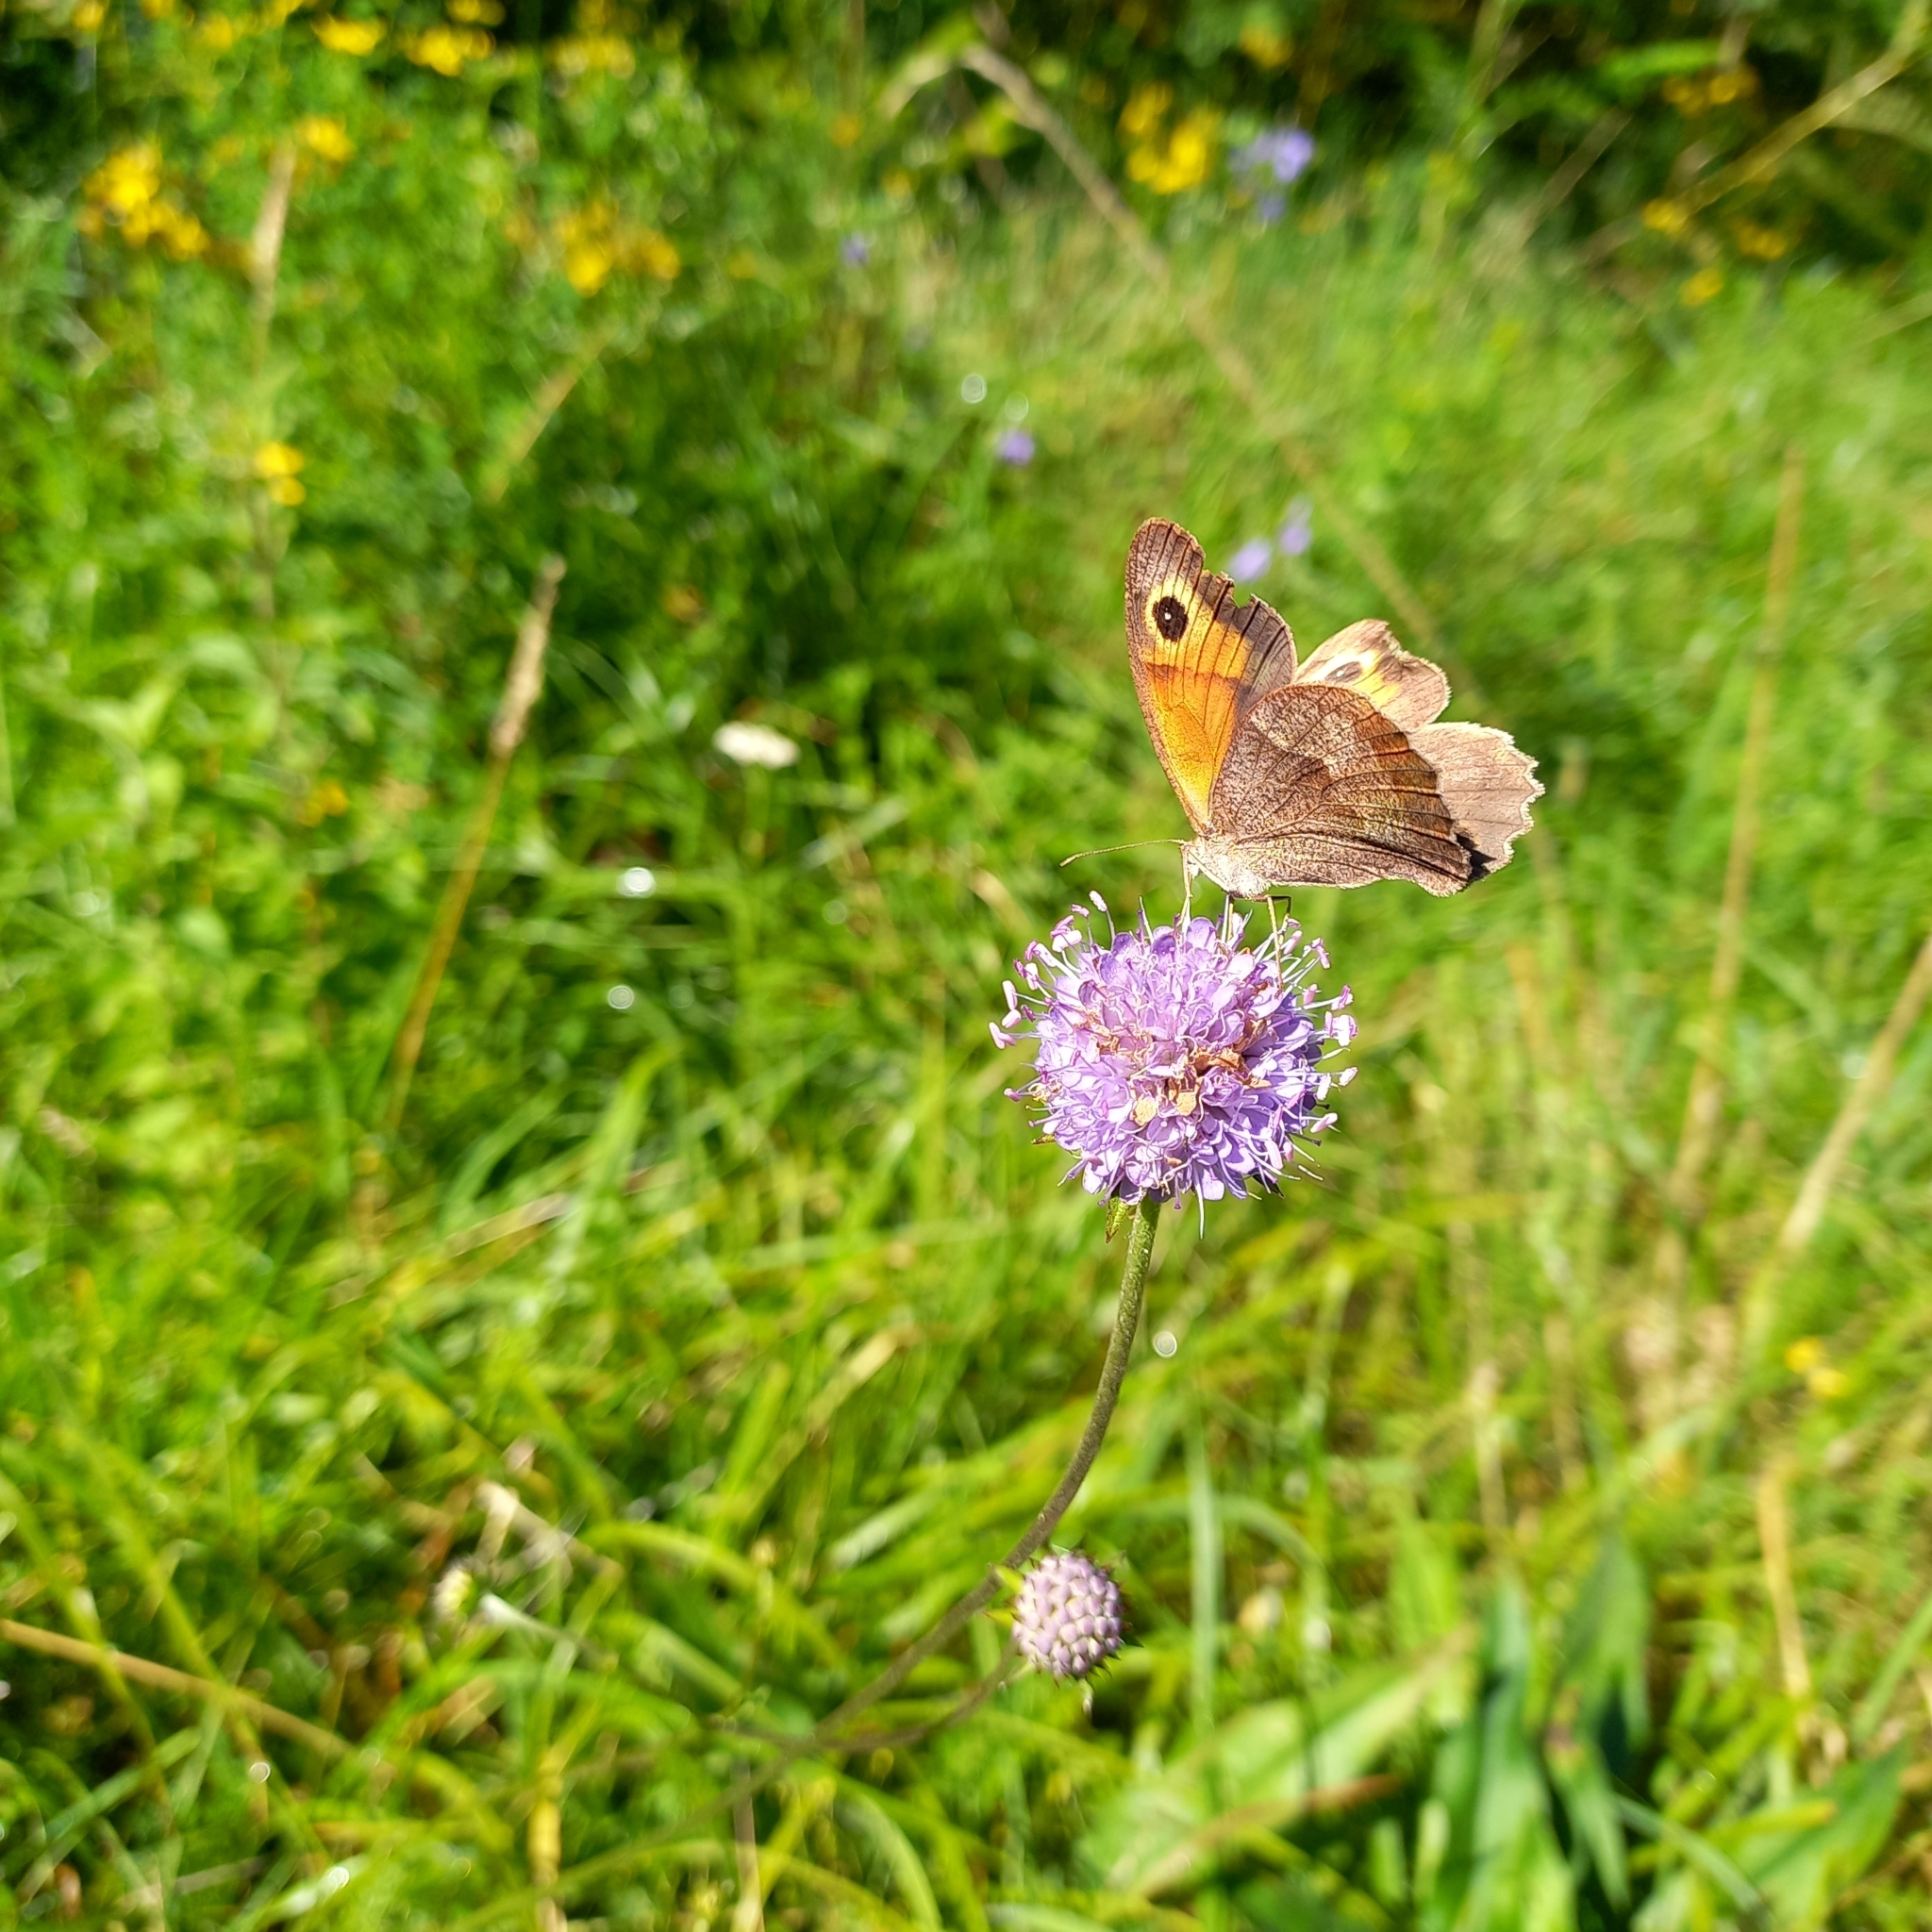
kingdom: Animalia
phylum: Arthropoda
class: Insecta
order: Lepidoptera
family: Nymphalidae
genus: Maniola
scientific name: Maniola jurtina
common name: Meadow brown
